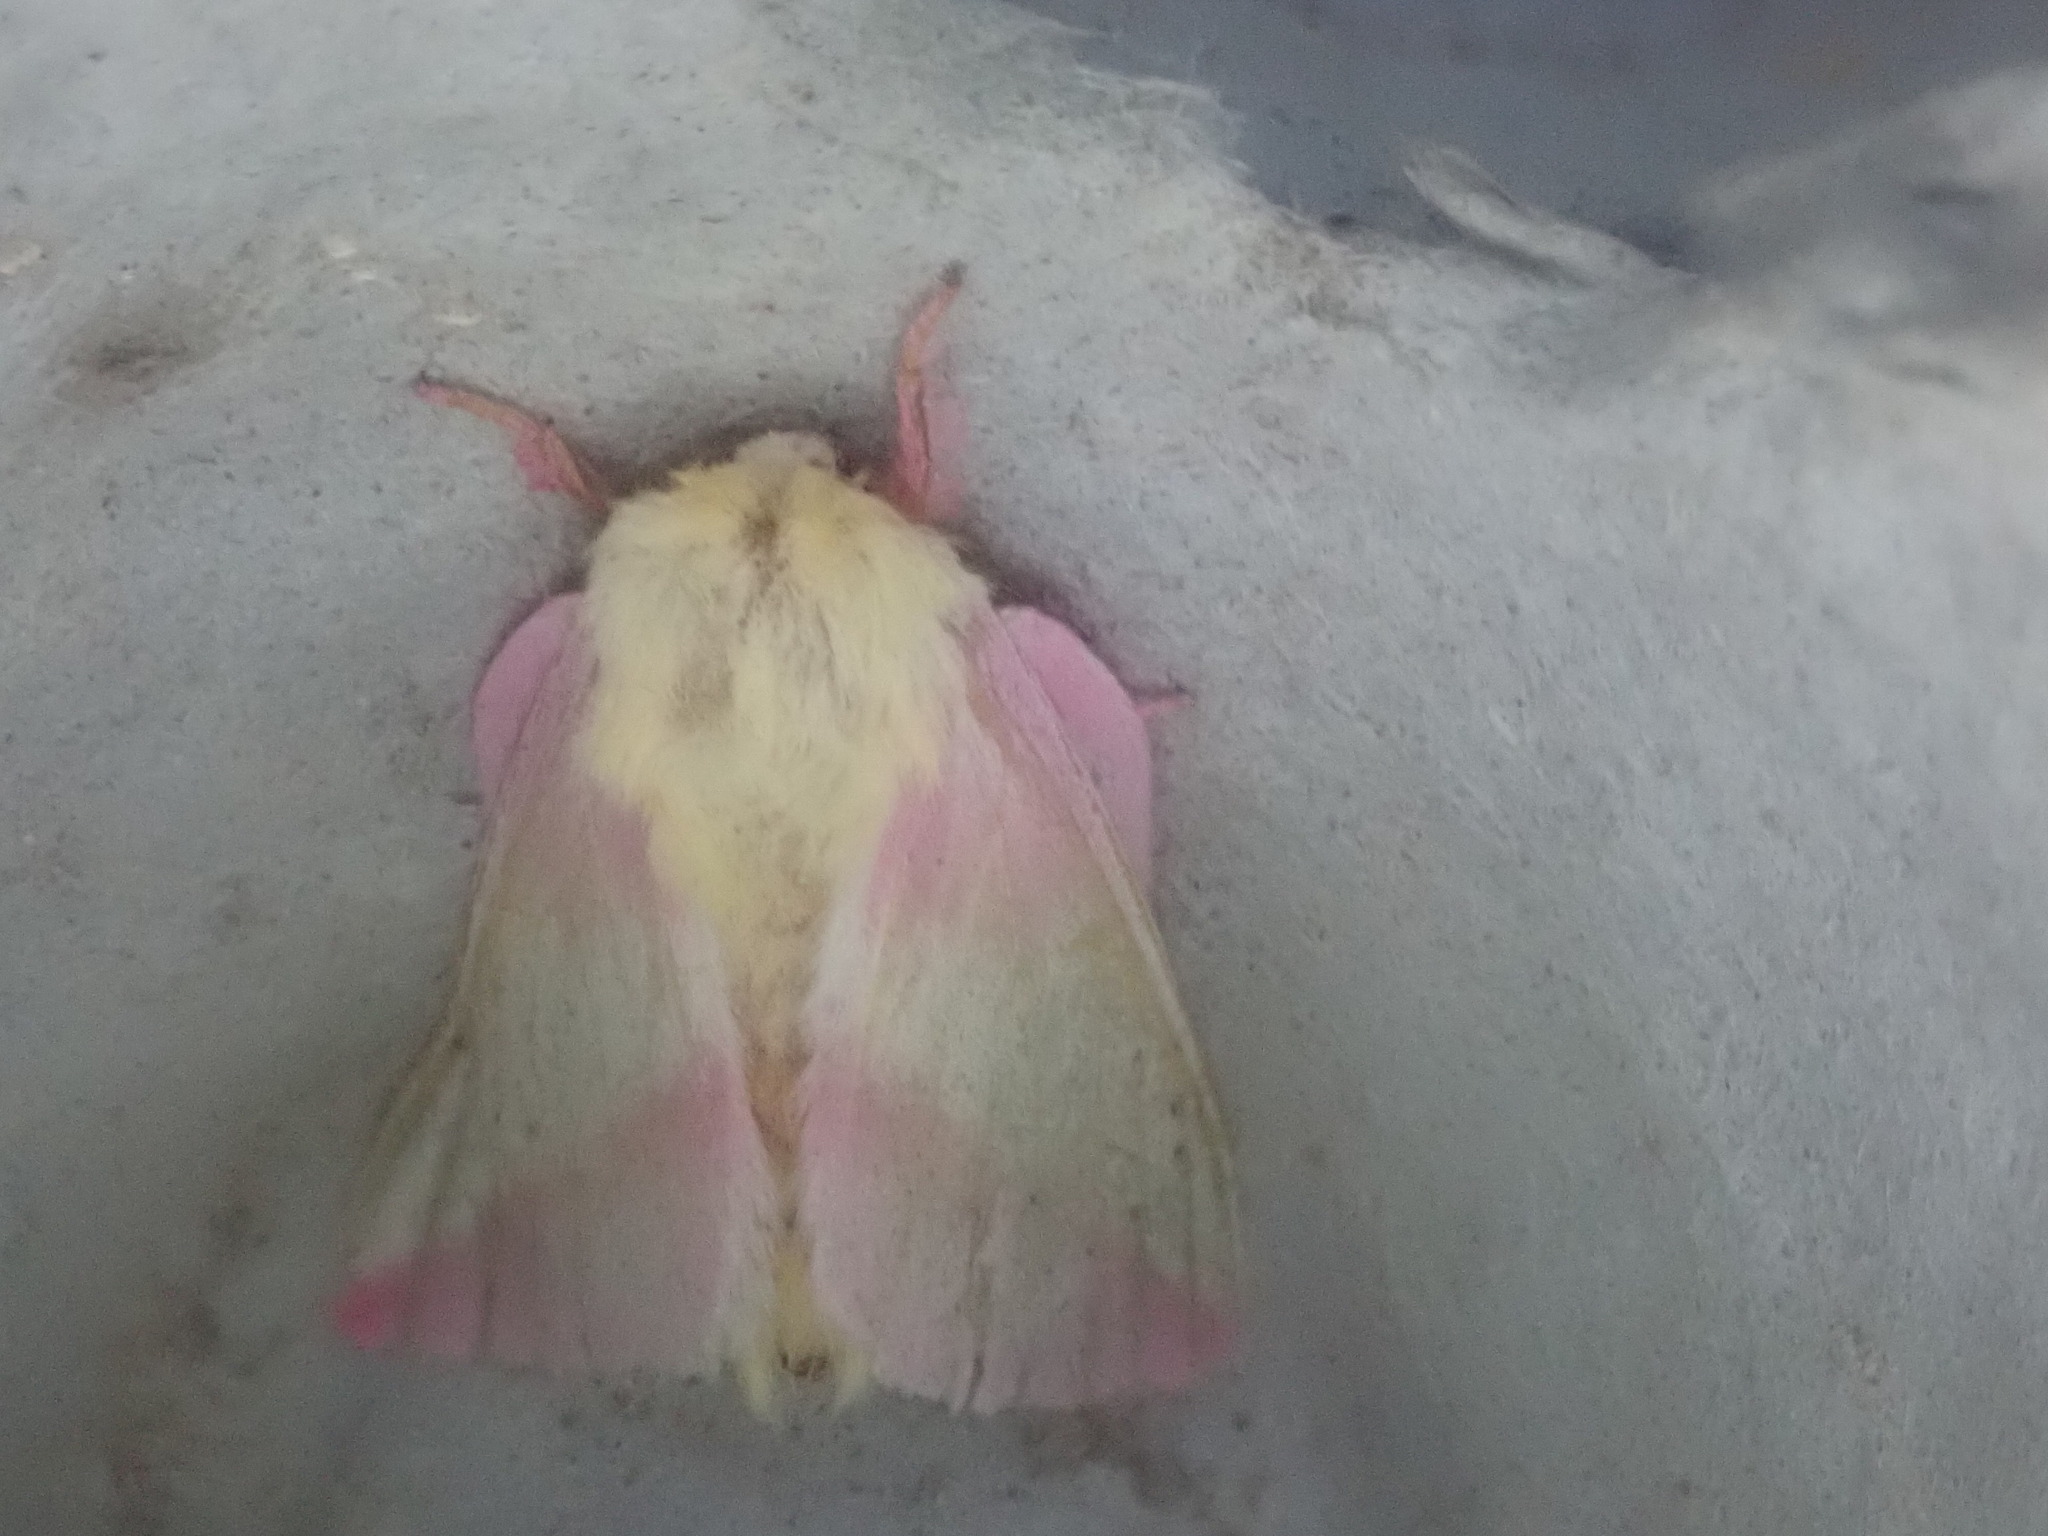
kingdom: Animalia
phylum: Arthropoda
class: Insecta
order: Lepidoptera
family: Saturniidae
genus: Dryocampa
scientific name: Dryocampa rubicunda
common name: Rosy maple moth
